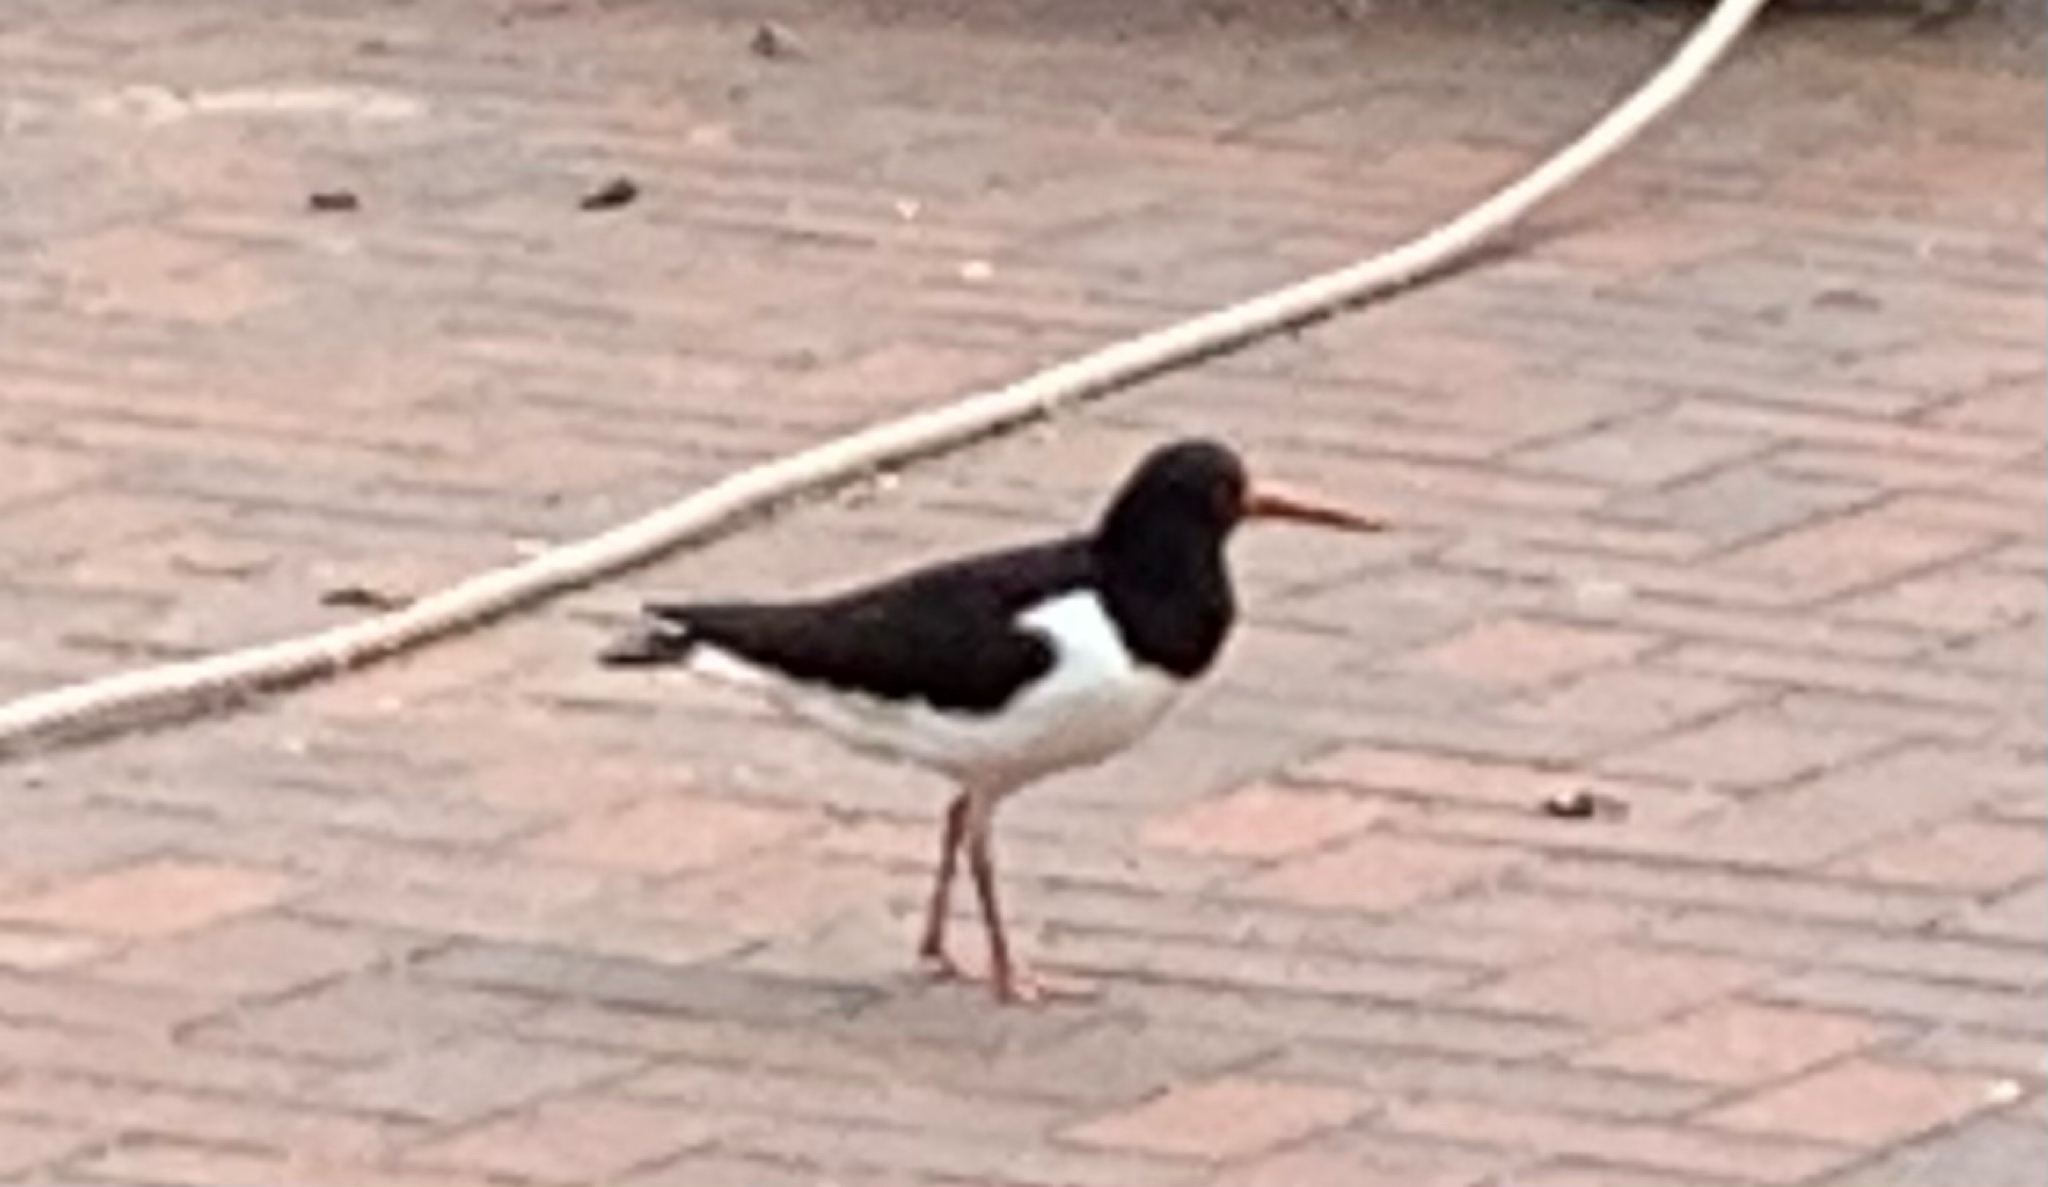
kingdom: Animalia
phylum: Chordata
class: Aves
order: Charadriiformes
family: Haematopodidae
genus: Haematopus
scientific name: Haematopus ostralegus
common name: Eurasian oystercatcher
